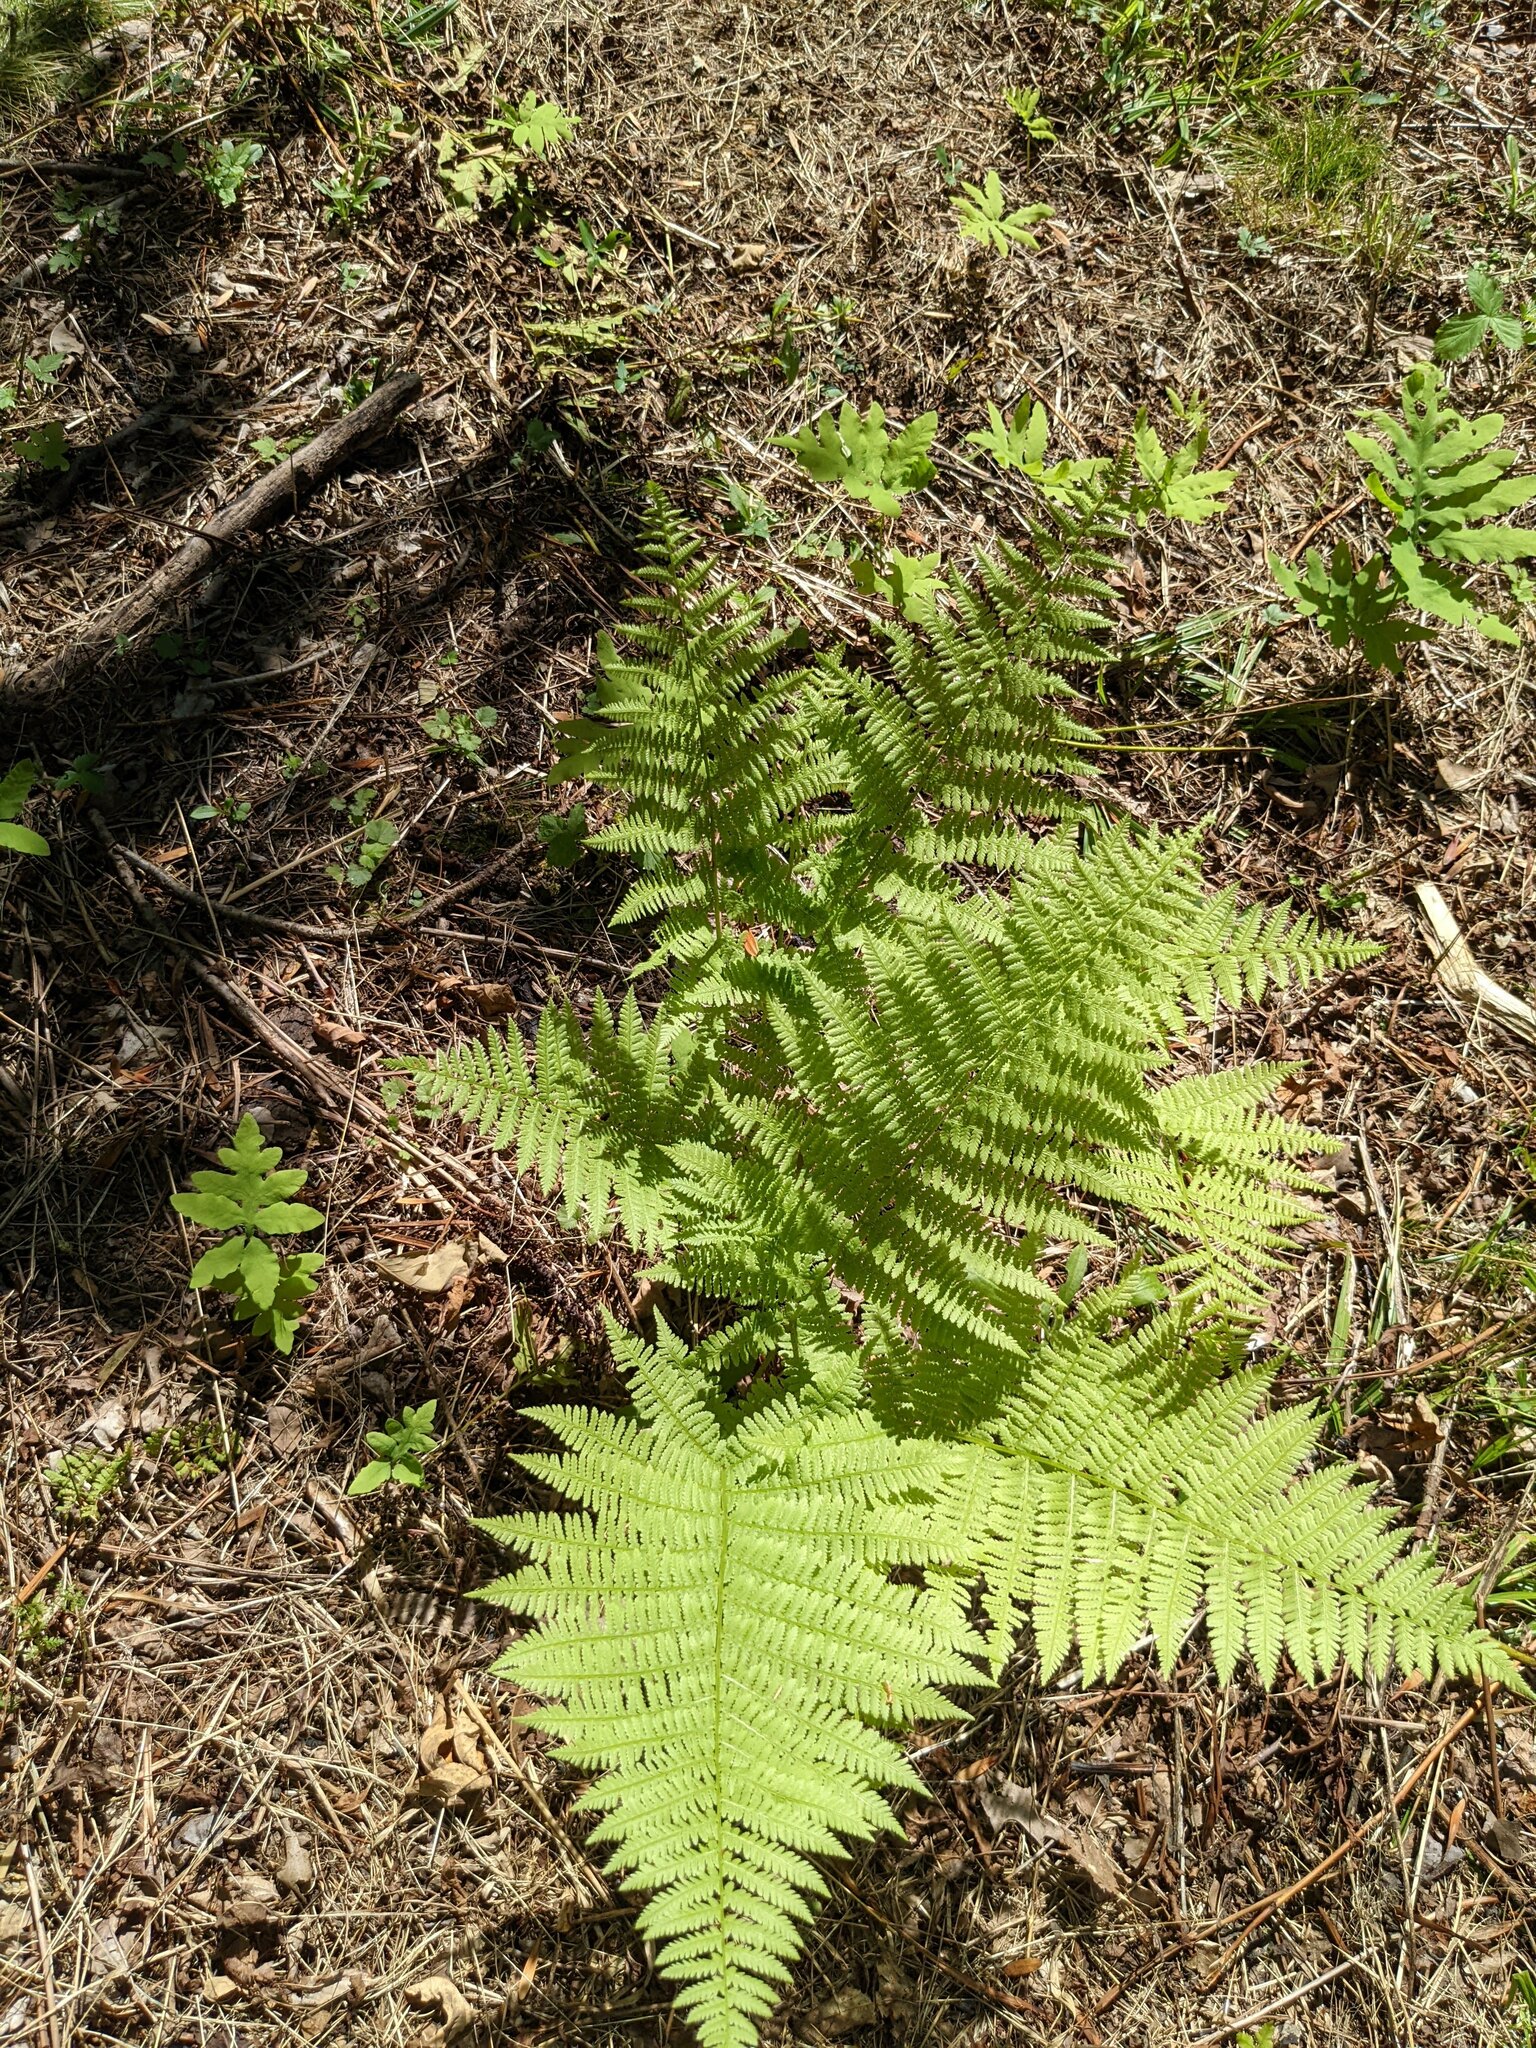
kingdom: Plantae
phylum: Tracheophyta
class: Polypodiopsida
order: Polypodiales
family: Athyriaceae
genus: Athyrium
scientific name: Athyrium angustum
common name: Northern lady fern
